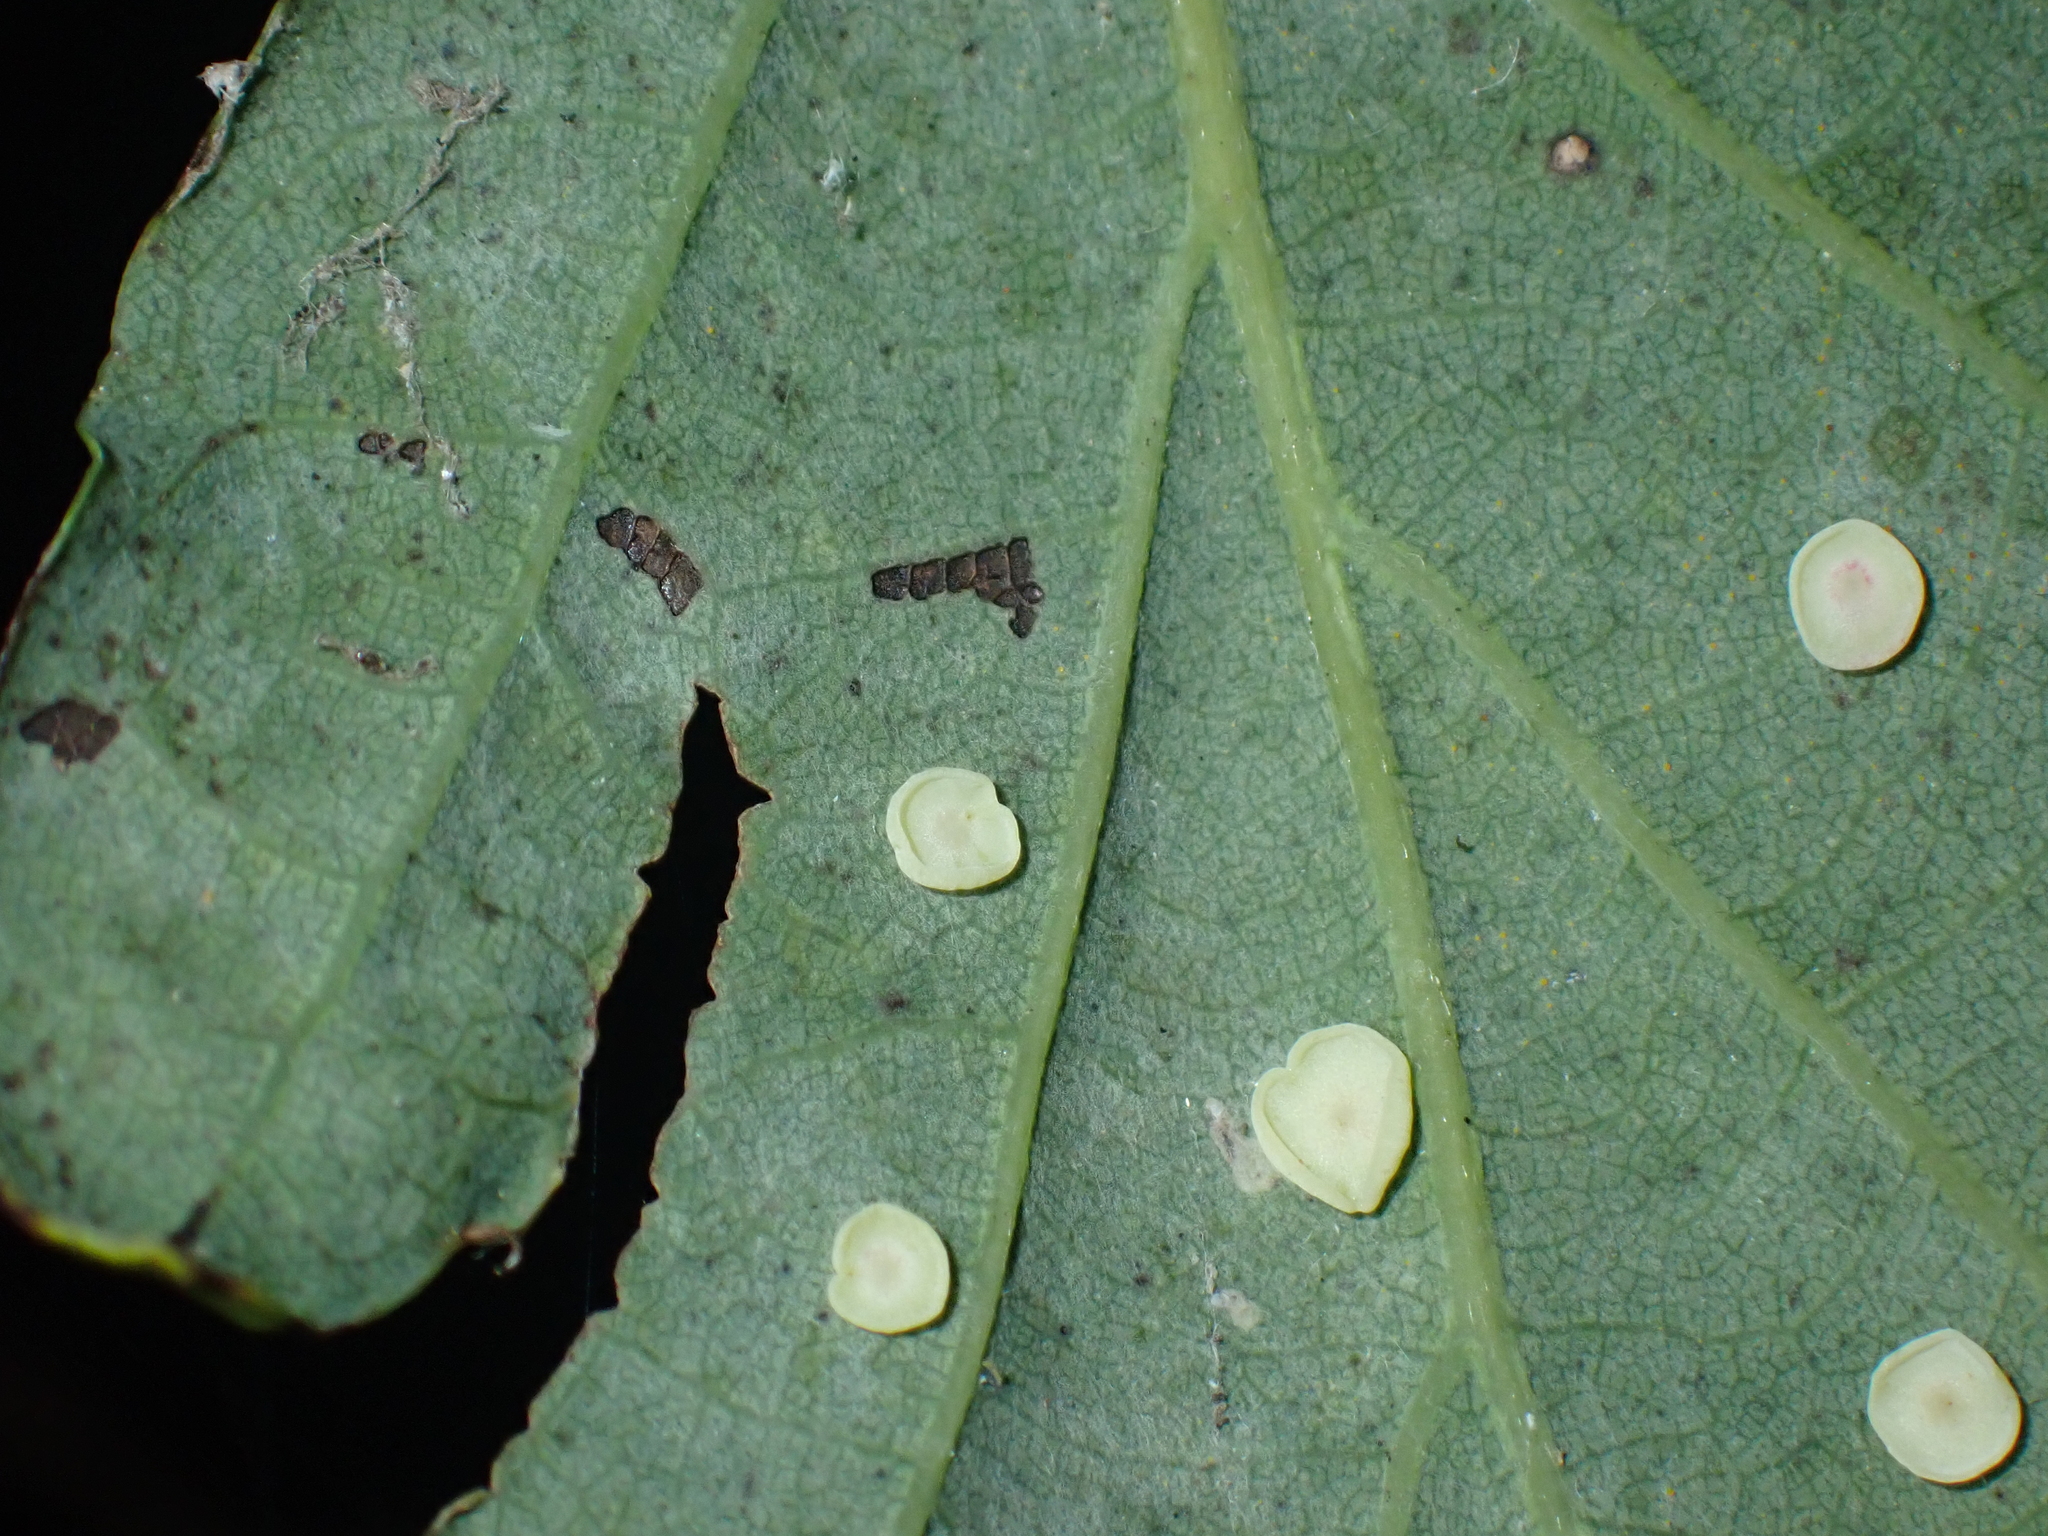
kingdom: Animalia
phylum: Arthropoda
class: Insecta
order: Hymenoptera
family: Cynipidae
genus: Neuroterus
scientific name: Neuroterus albipes
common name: Smooth spangle gall
